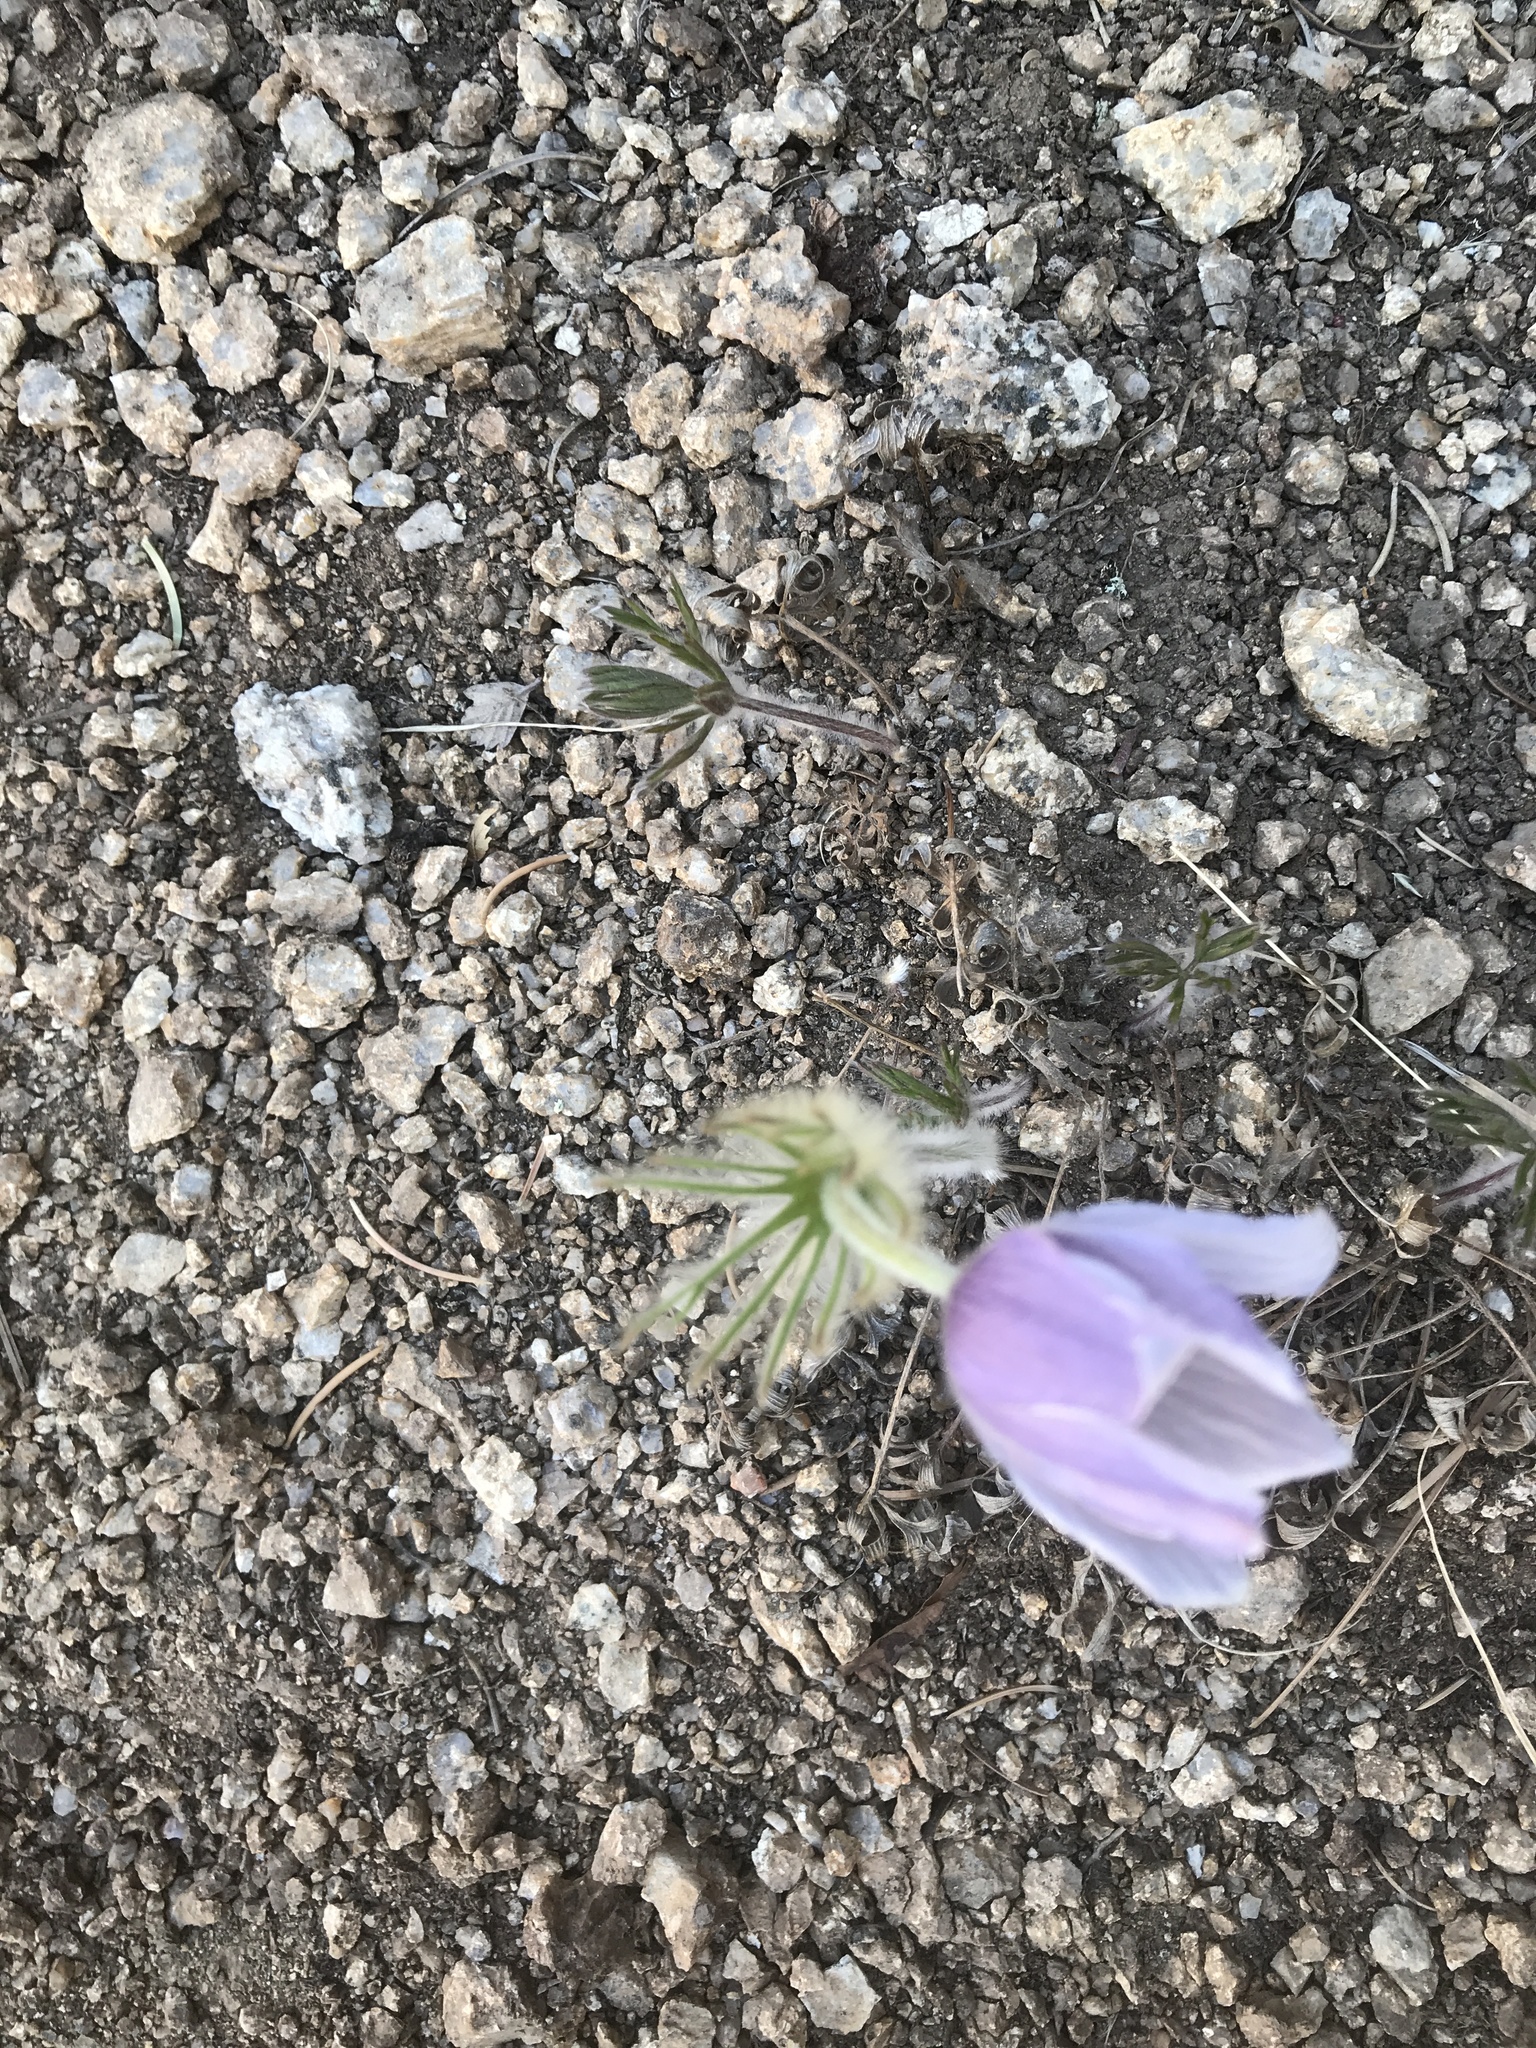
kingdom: Plantae
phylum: Tracheophyta
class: Magnoliopsida
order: Ranunculales
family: Ranunculaceae
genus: Pulsatilla
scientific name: Pulsatilla nuttalliana
